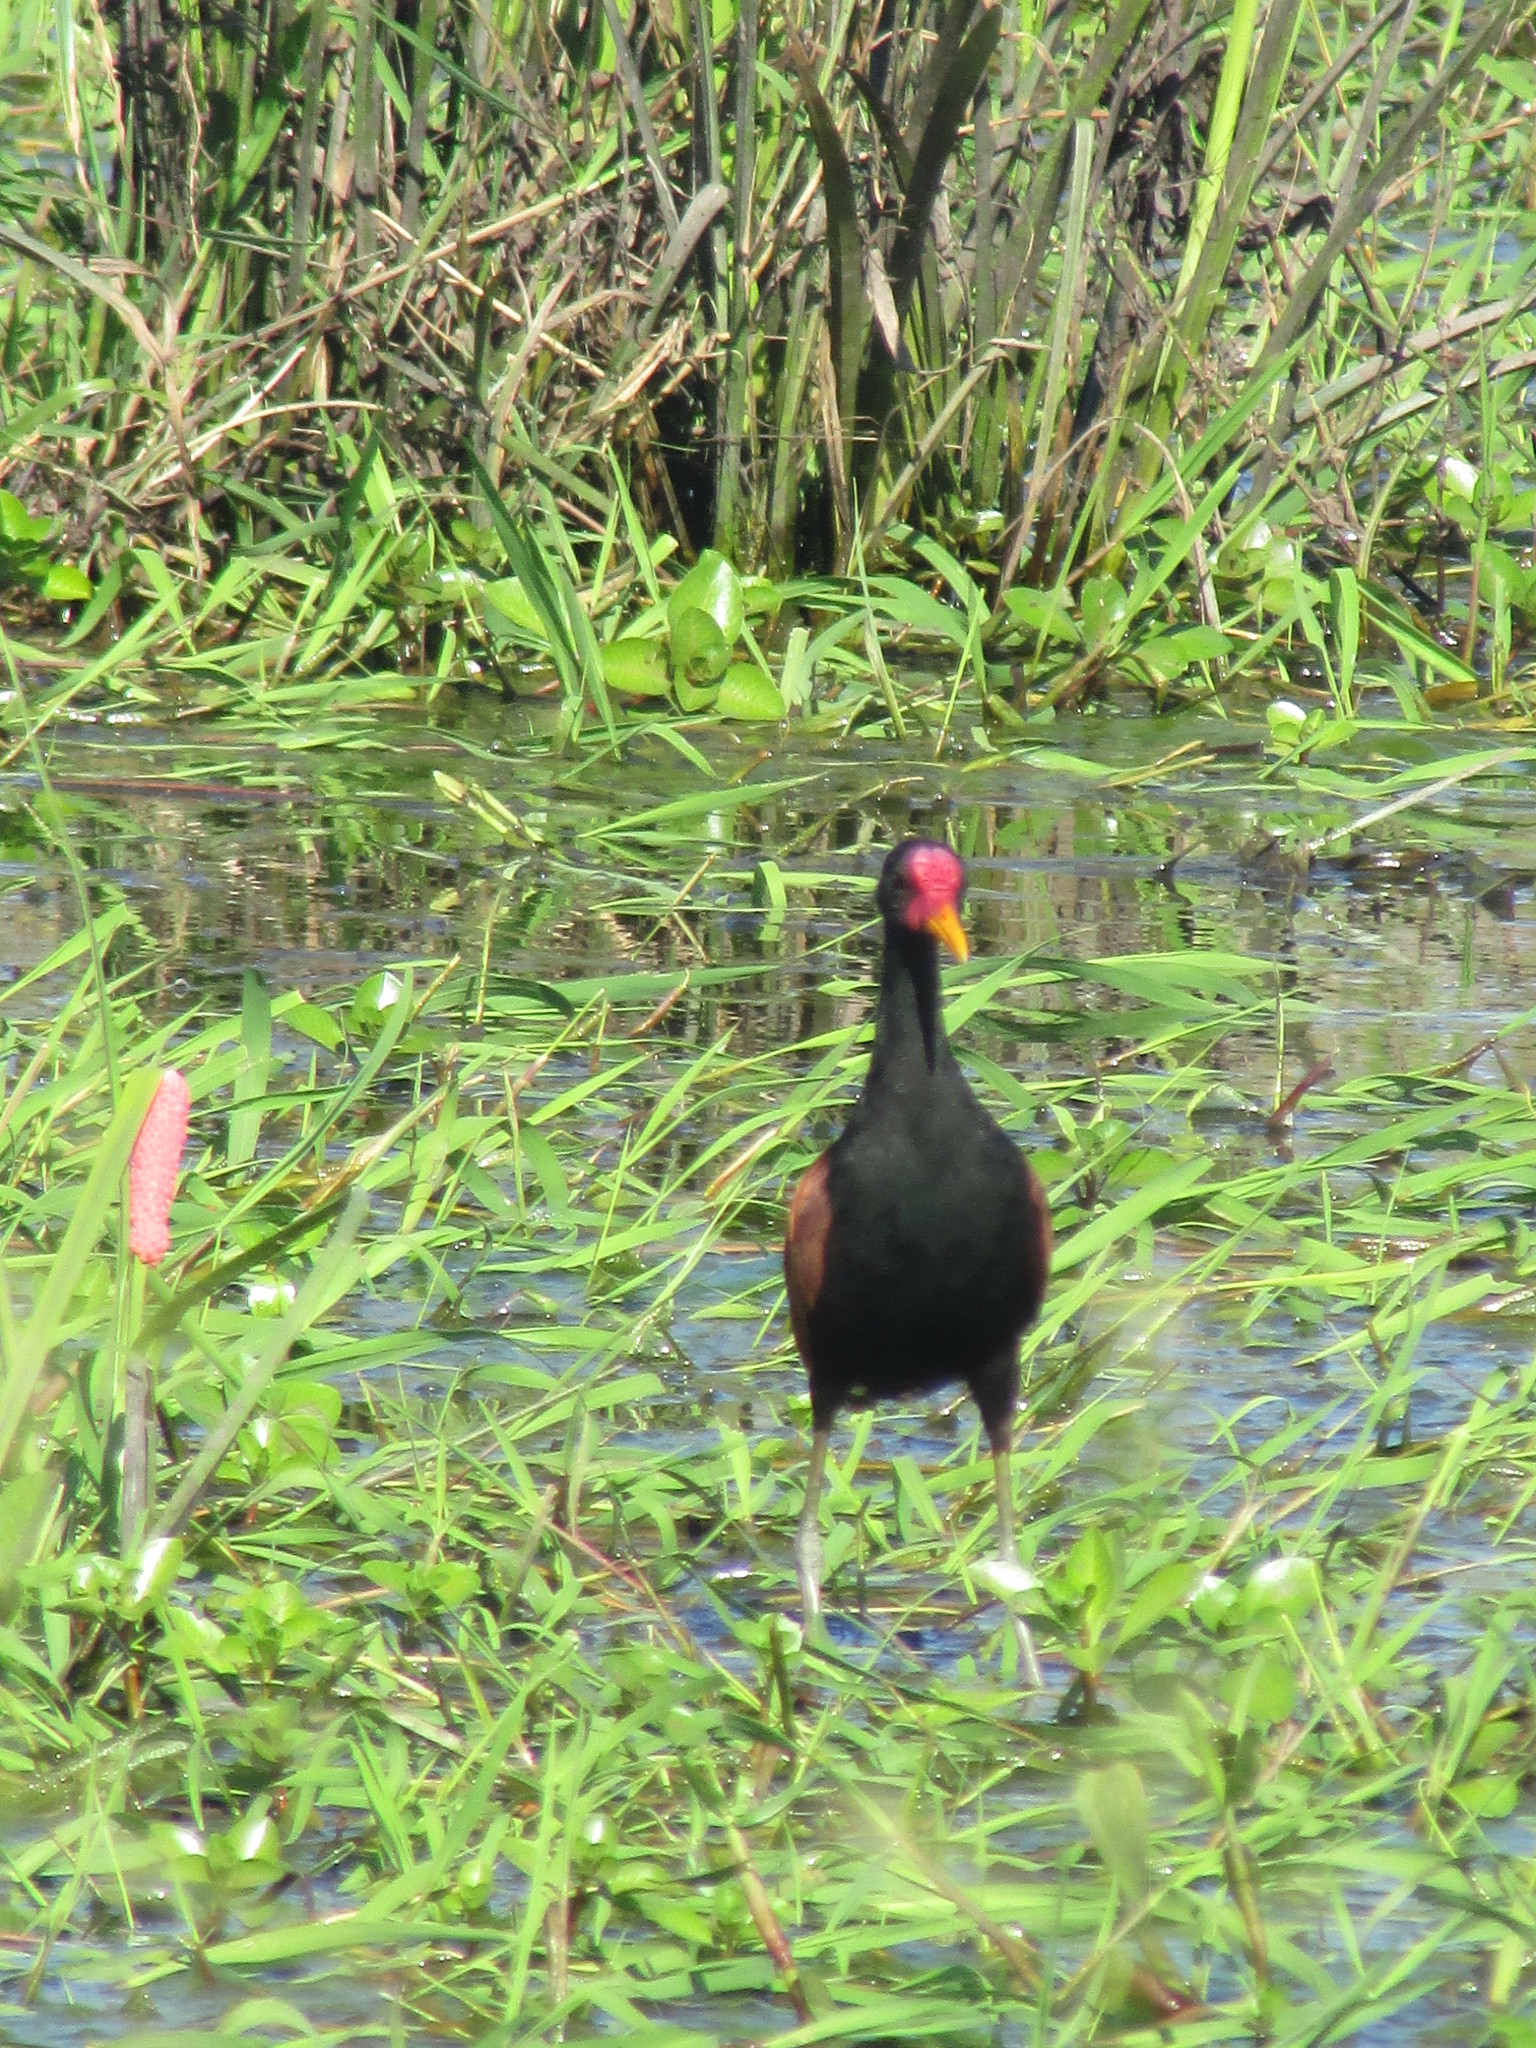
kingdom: Animalia
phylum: Chordata
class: Aves
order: Charadriiformes
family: Jacanidae
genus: Jacana
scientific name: Jacana jacana
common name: Wattled jacana
